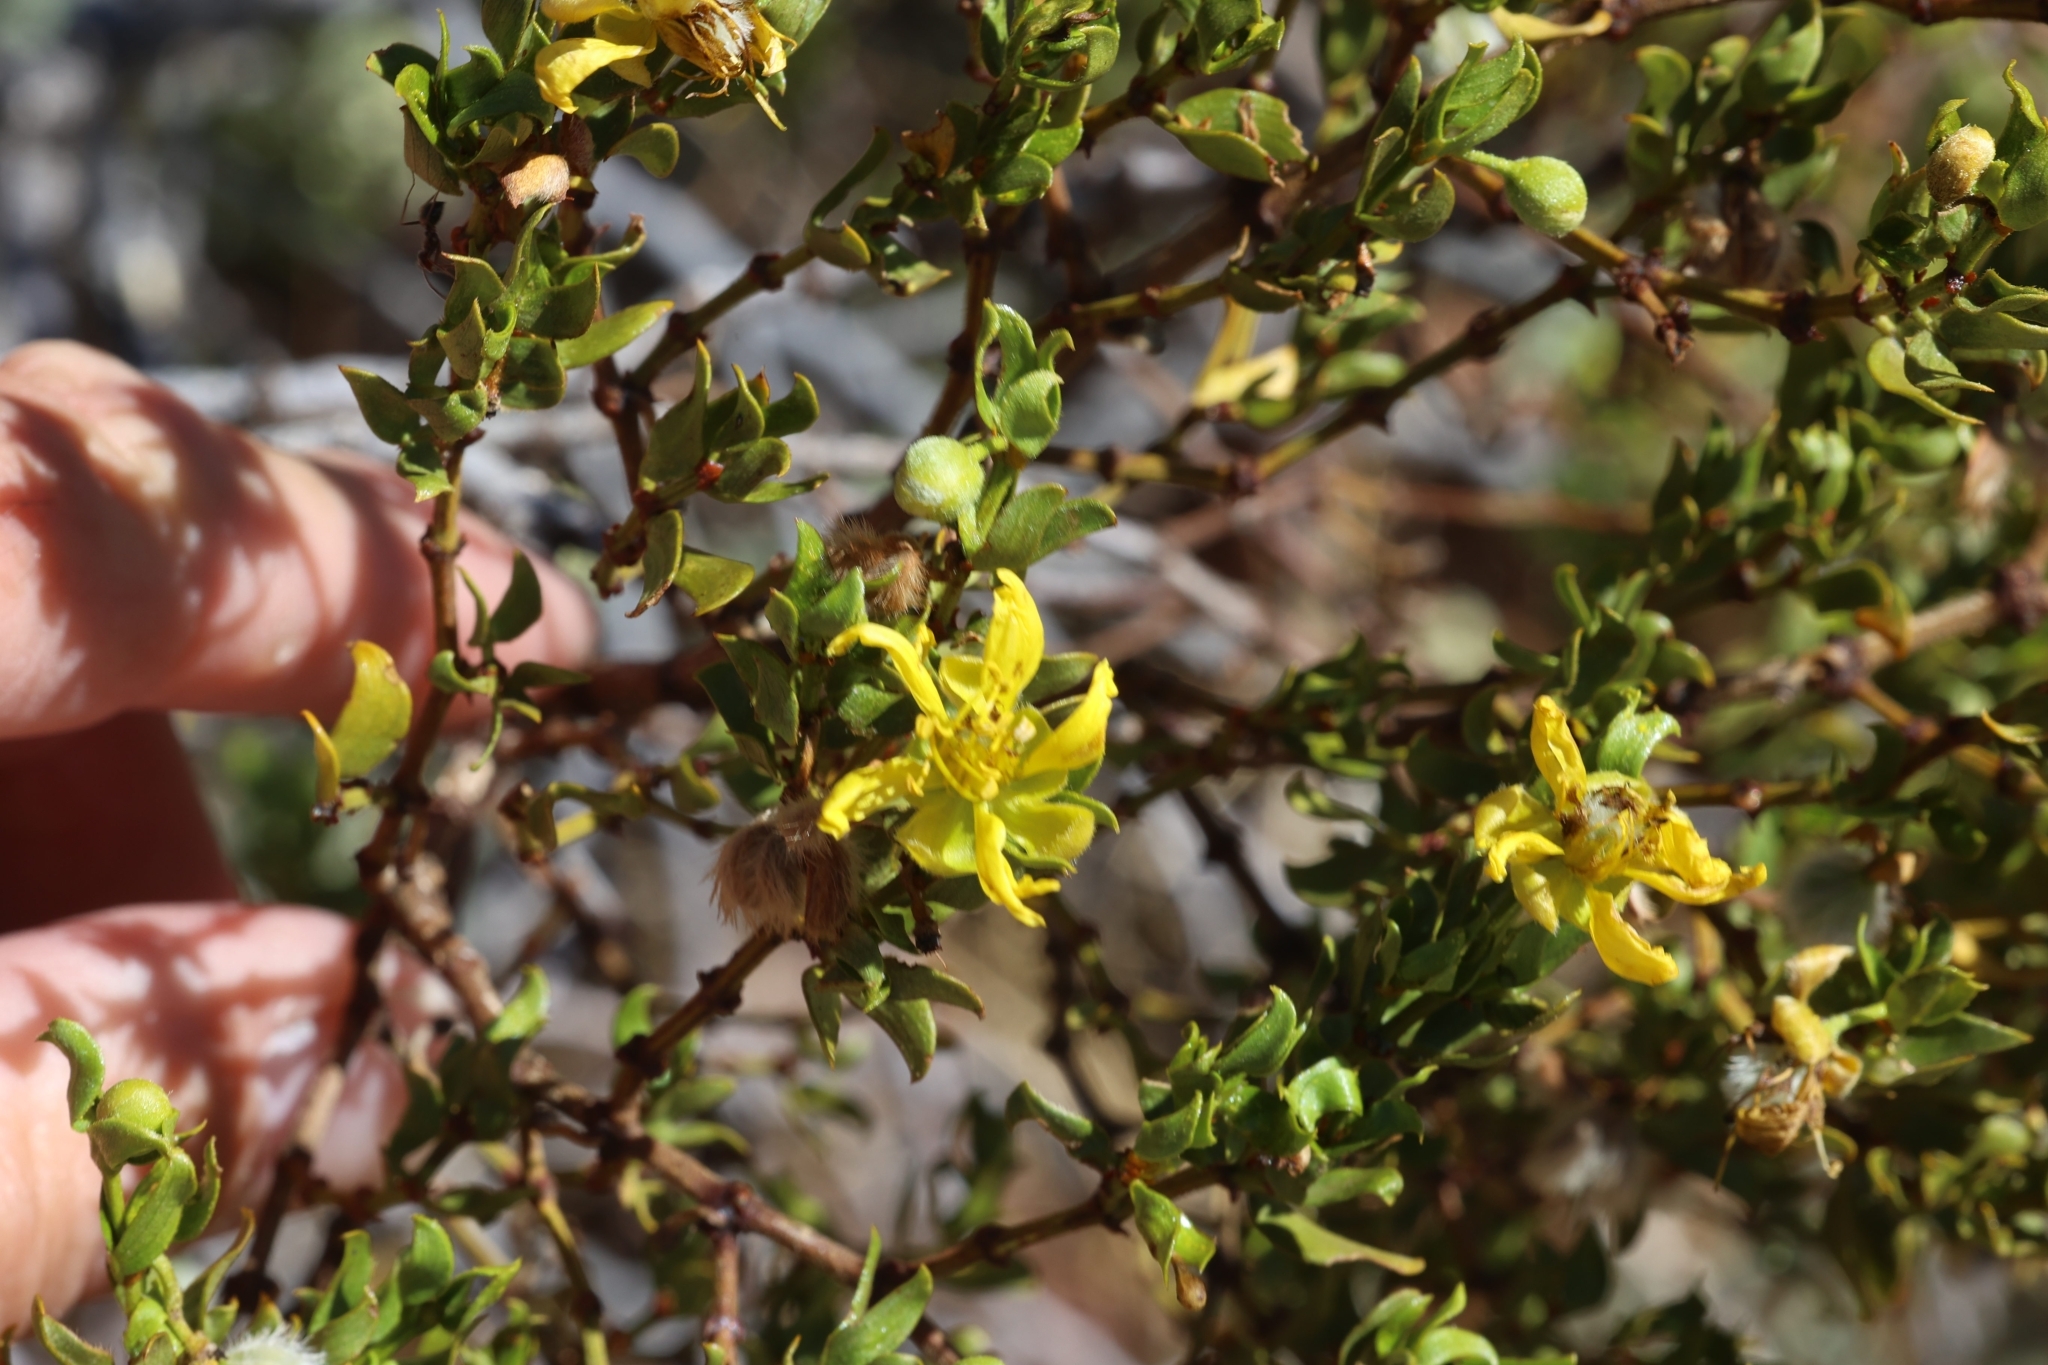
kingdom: Plantae
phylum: Tracheophyta
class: Magnoliopsida
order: Zygophyllales
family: Zygophyllaceae
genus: Larrea
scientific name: Larrea tridentata
